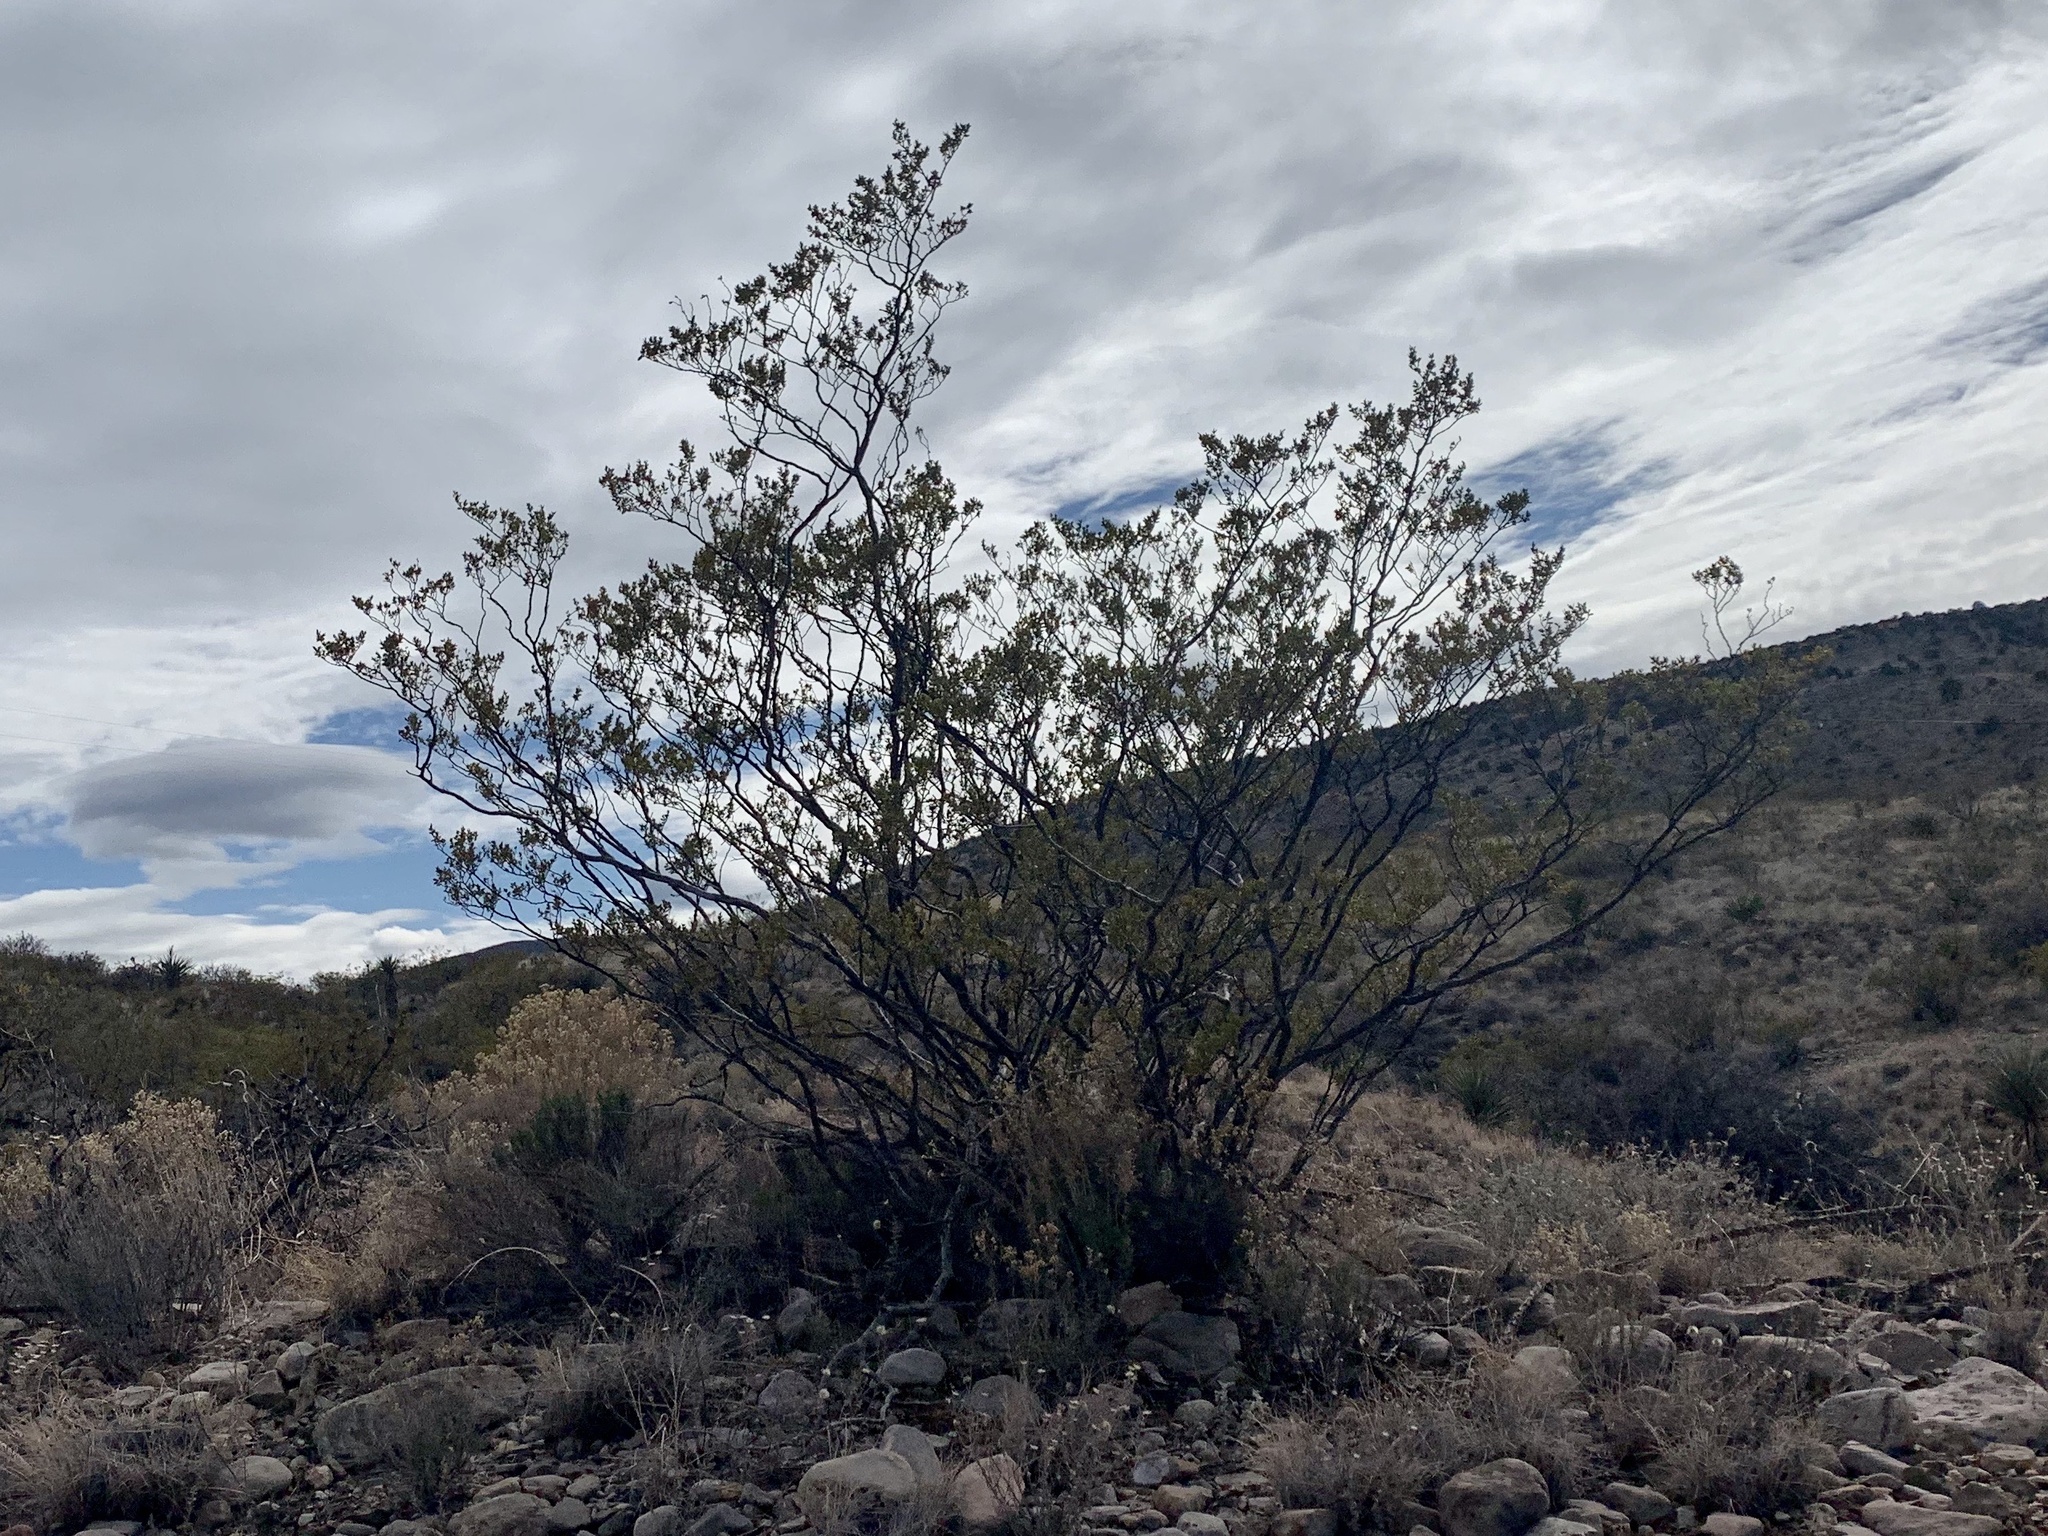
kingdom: Plantae
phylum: Tracheophyta
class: Magnoliopsida
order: Zygophyllales
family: Zygophyllaceae
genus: Larrea
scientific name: Larrea tridentata
